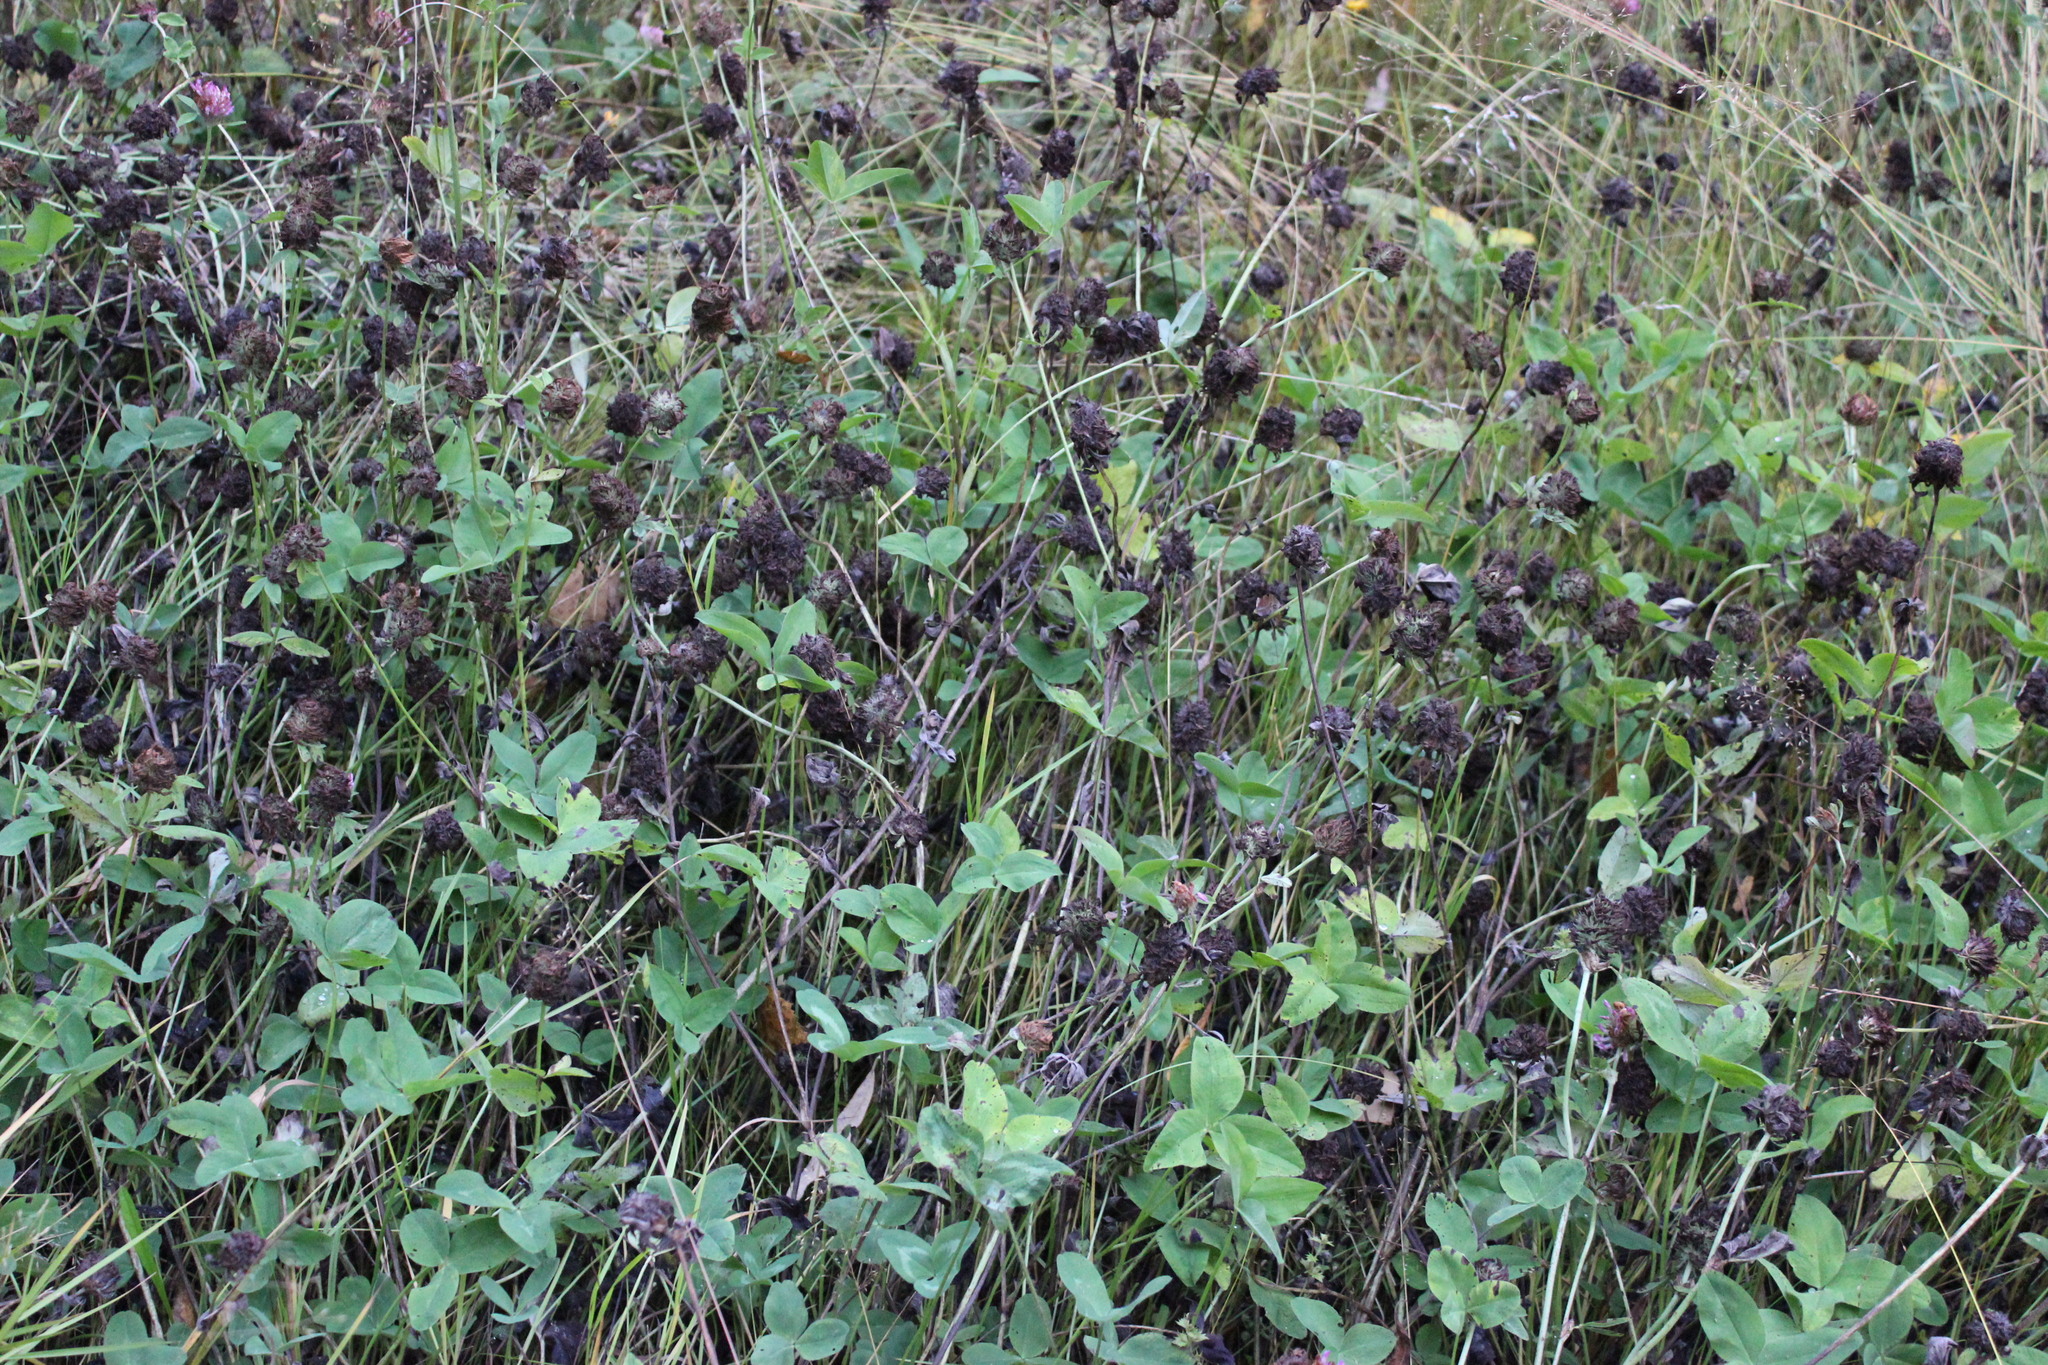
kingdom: Plantae
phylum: Tracheophyta
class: Magnoliopsida
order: Fabales
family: Fabaceae
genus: Trifolium
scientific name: Trifolium pratense
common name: Red clover
